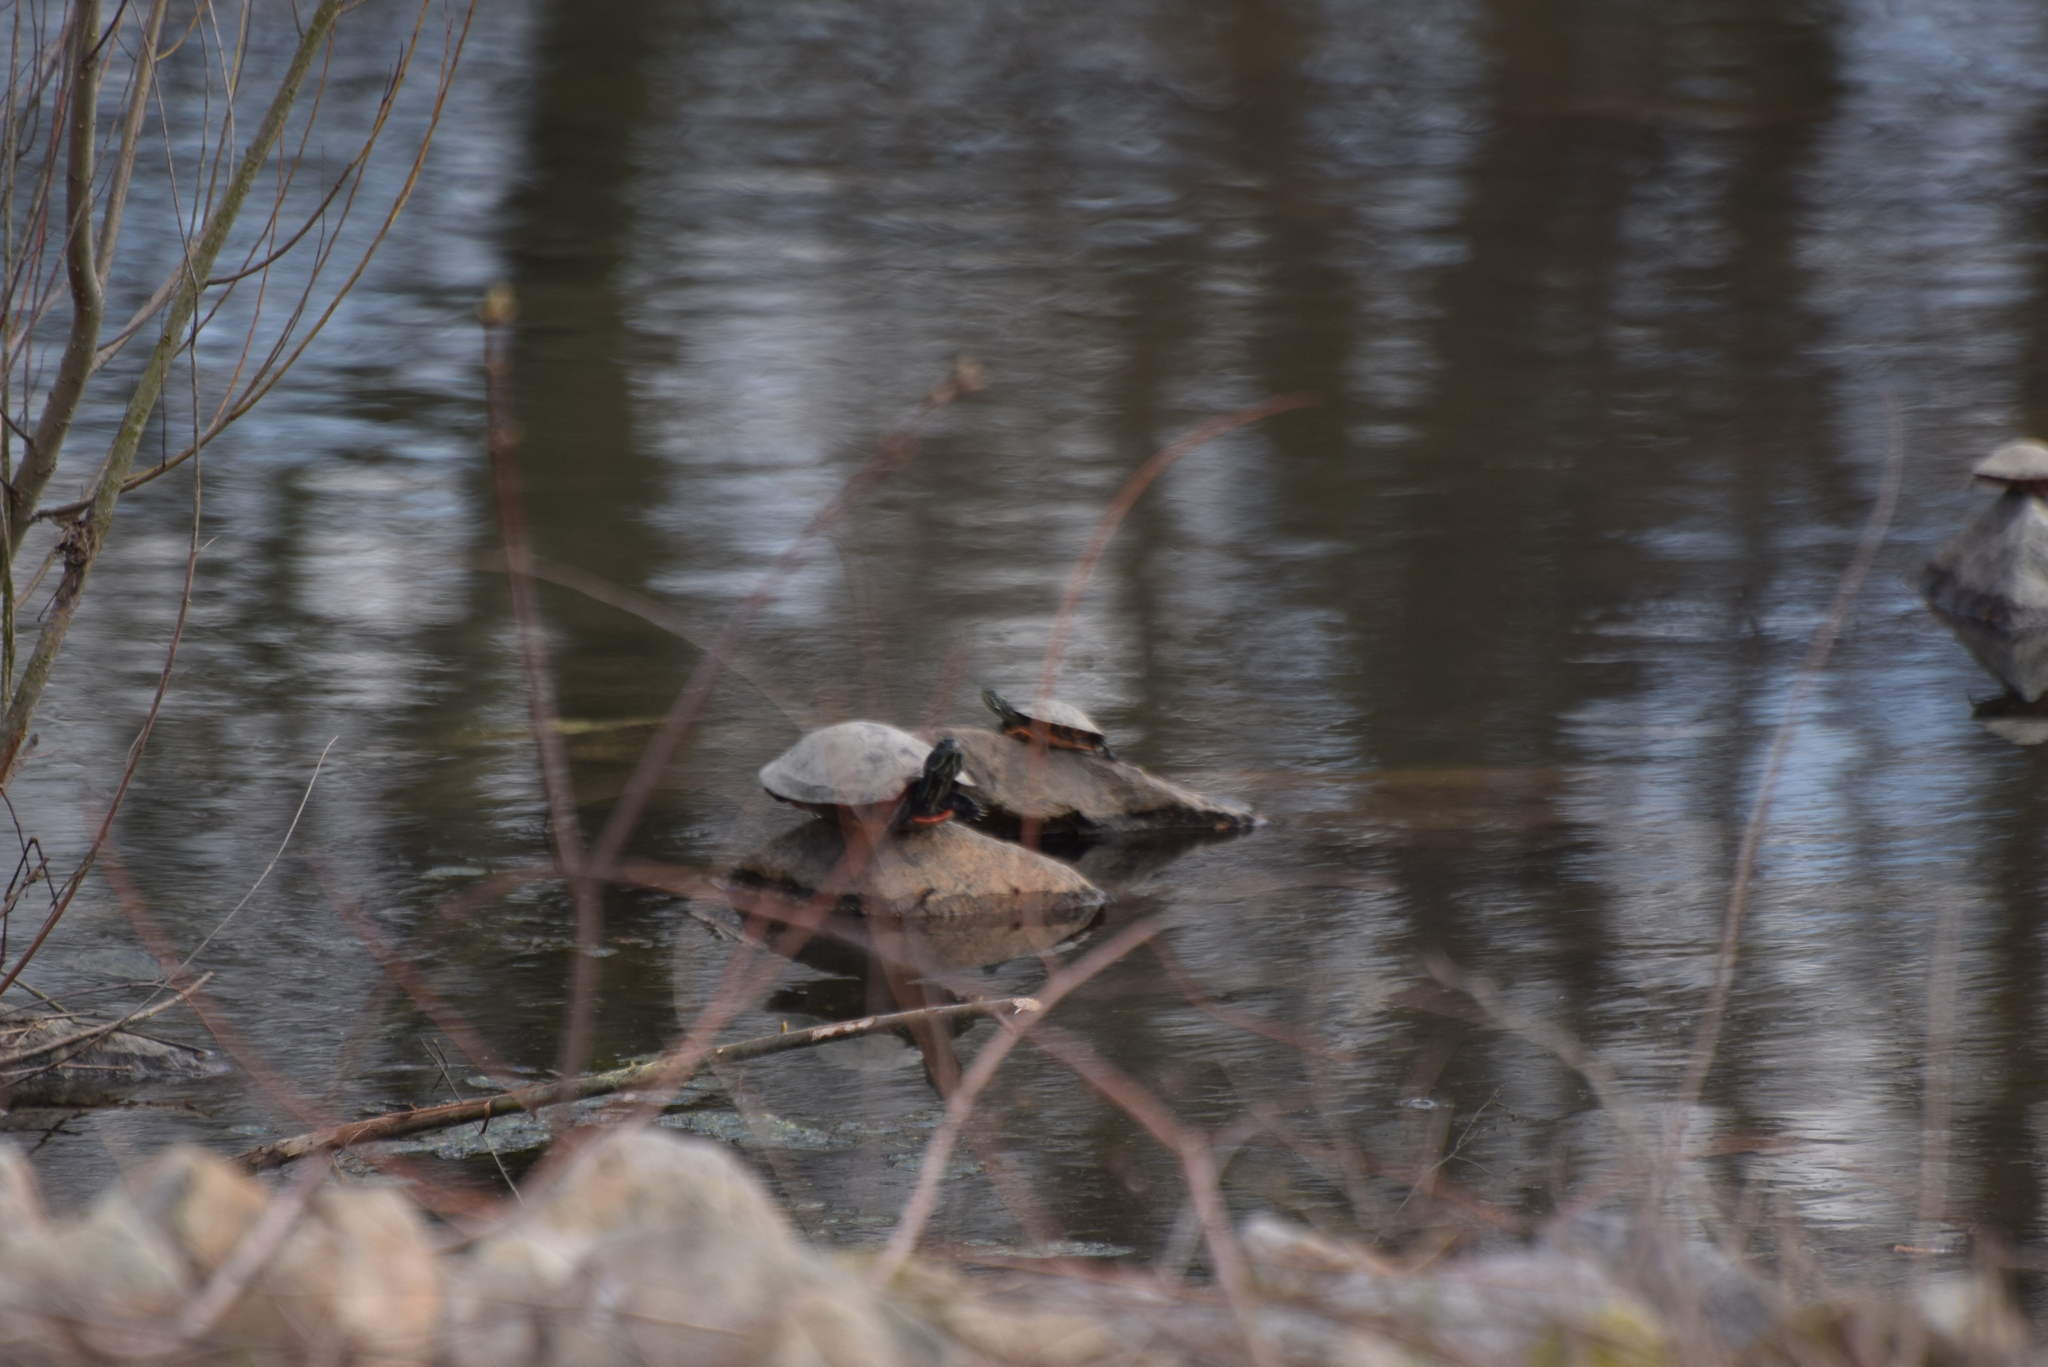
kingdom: Animalia
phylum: Chordata
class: Testudines
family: Emydidae
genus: Pseudemys
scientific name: Pseudemys rubriventris
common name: American red-bellied turtle
